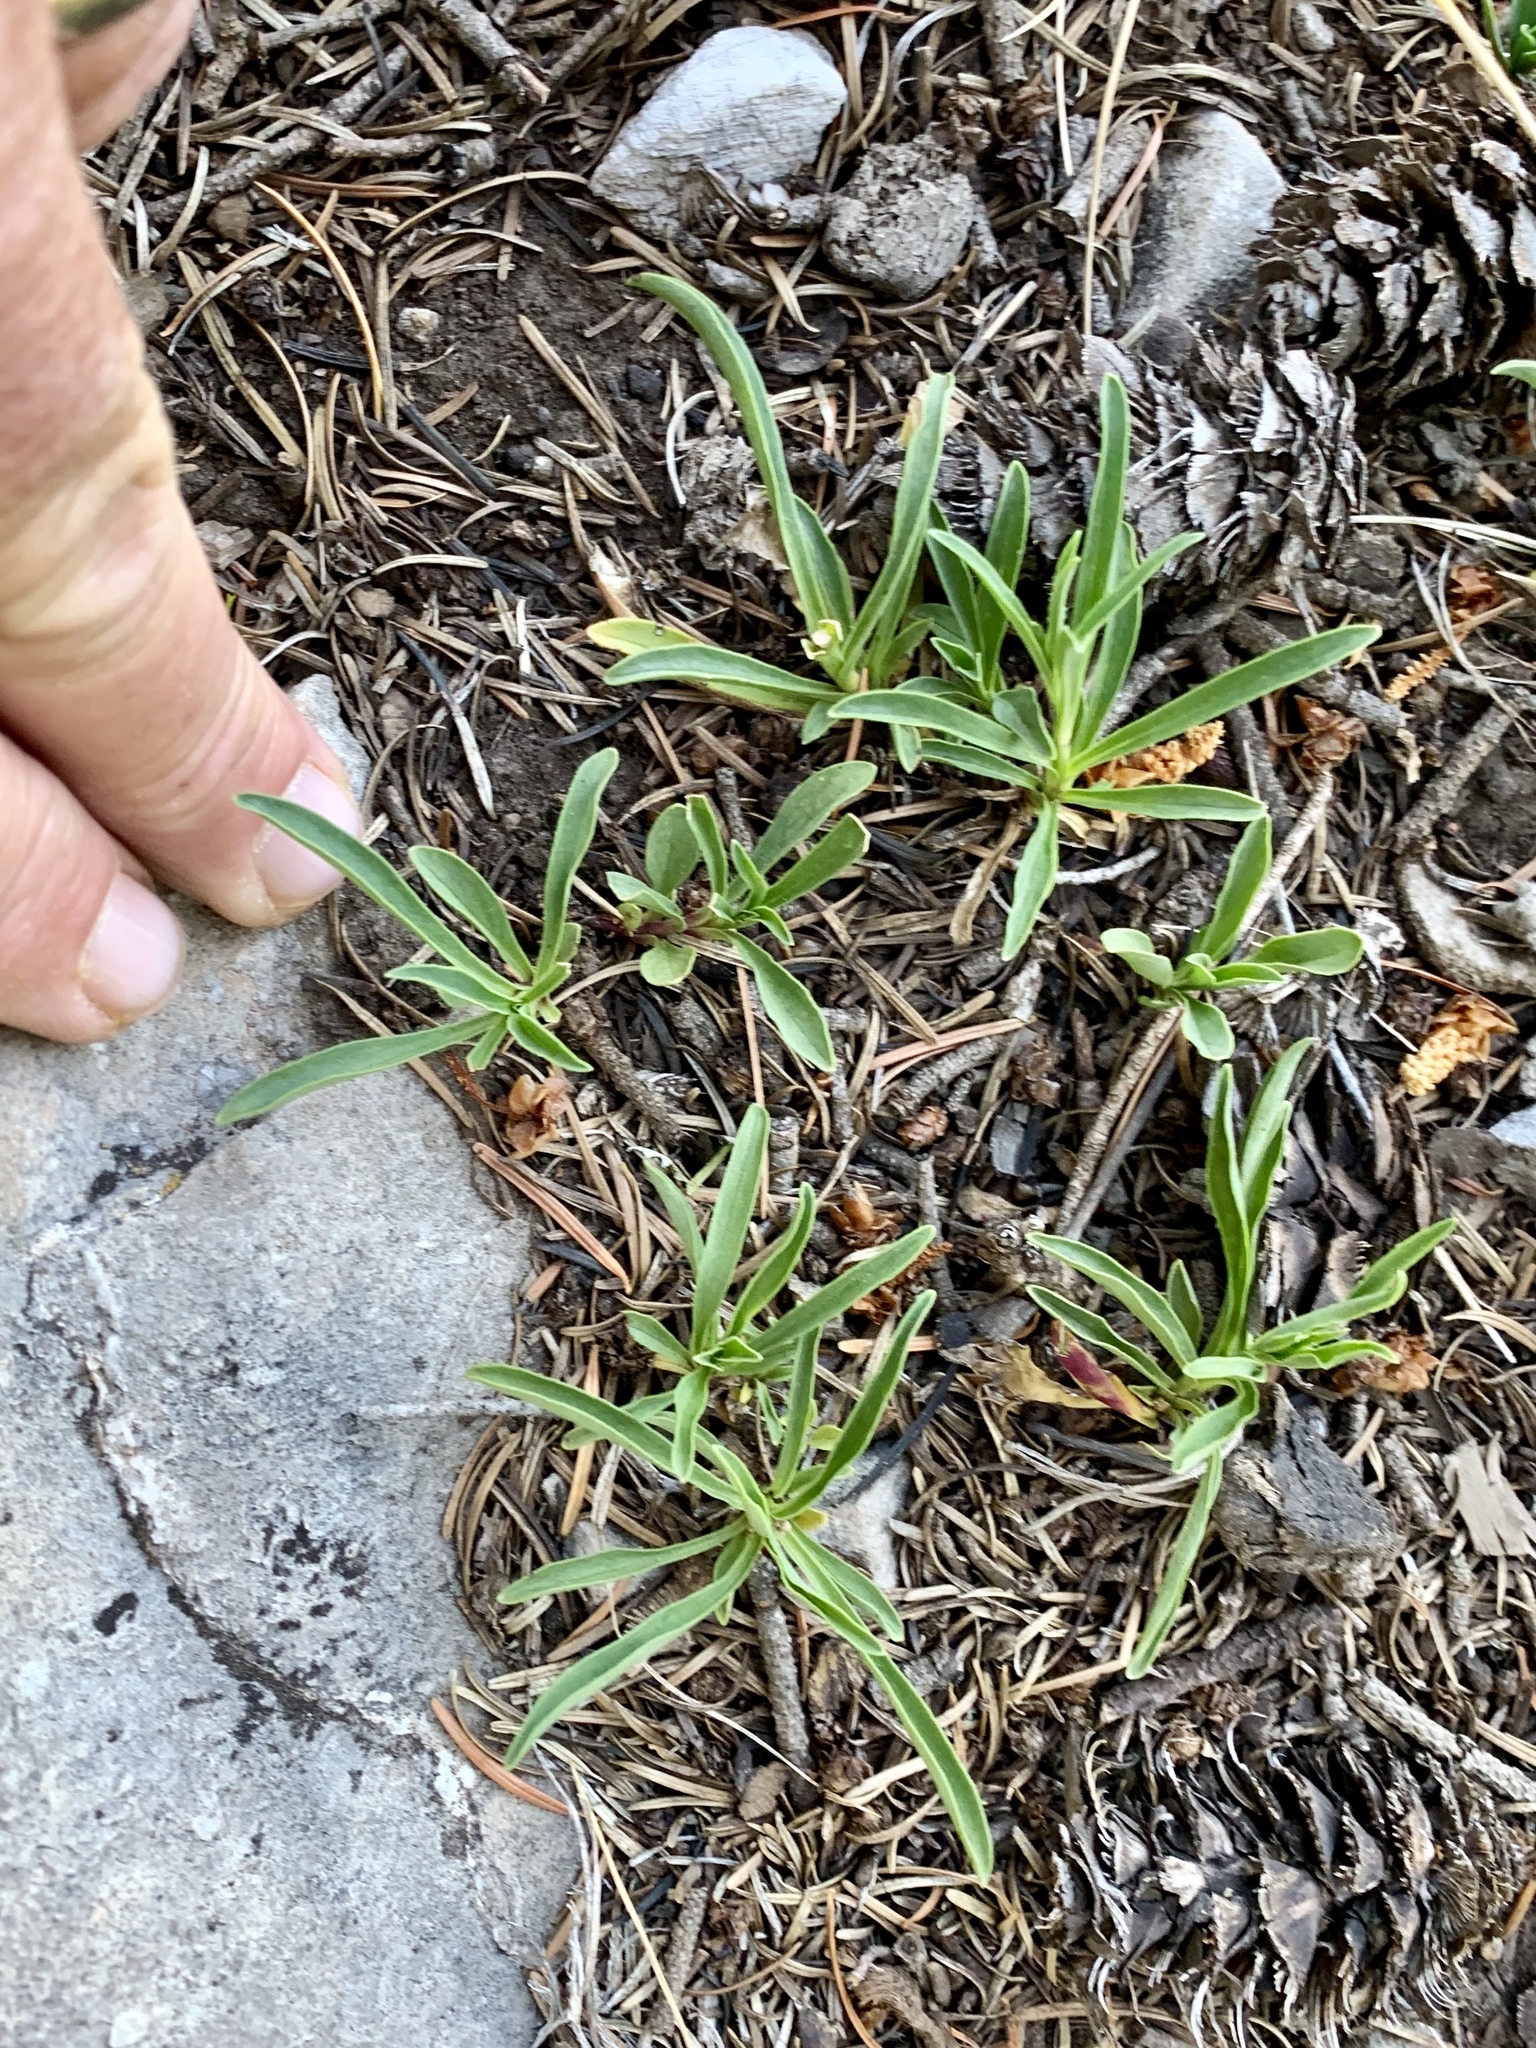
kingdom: Plantae
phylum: Tracheophyta
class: Magnoliopsida
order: Lamiales
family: Plantaginaceae
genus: Penstemon
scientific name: Penstemon neomexicanus
